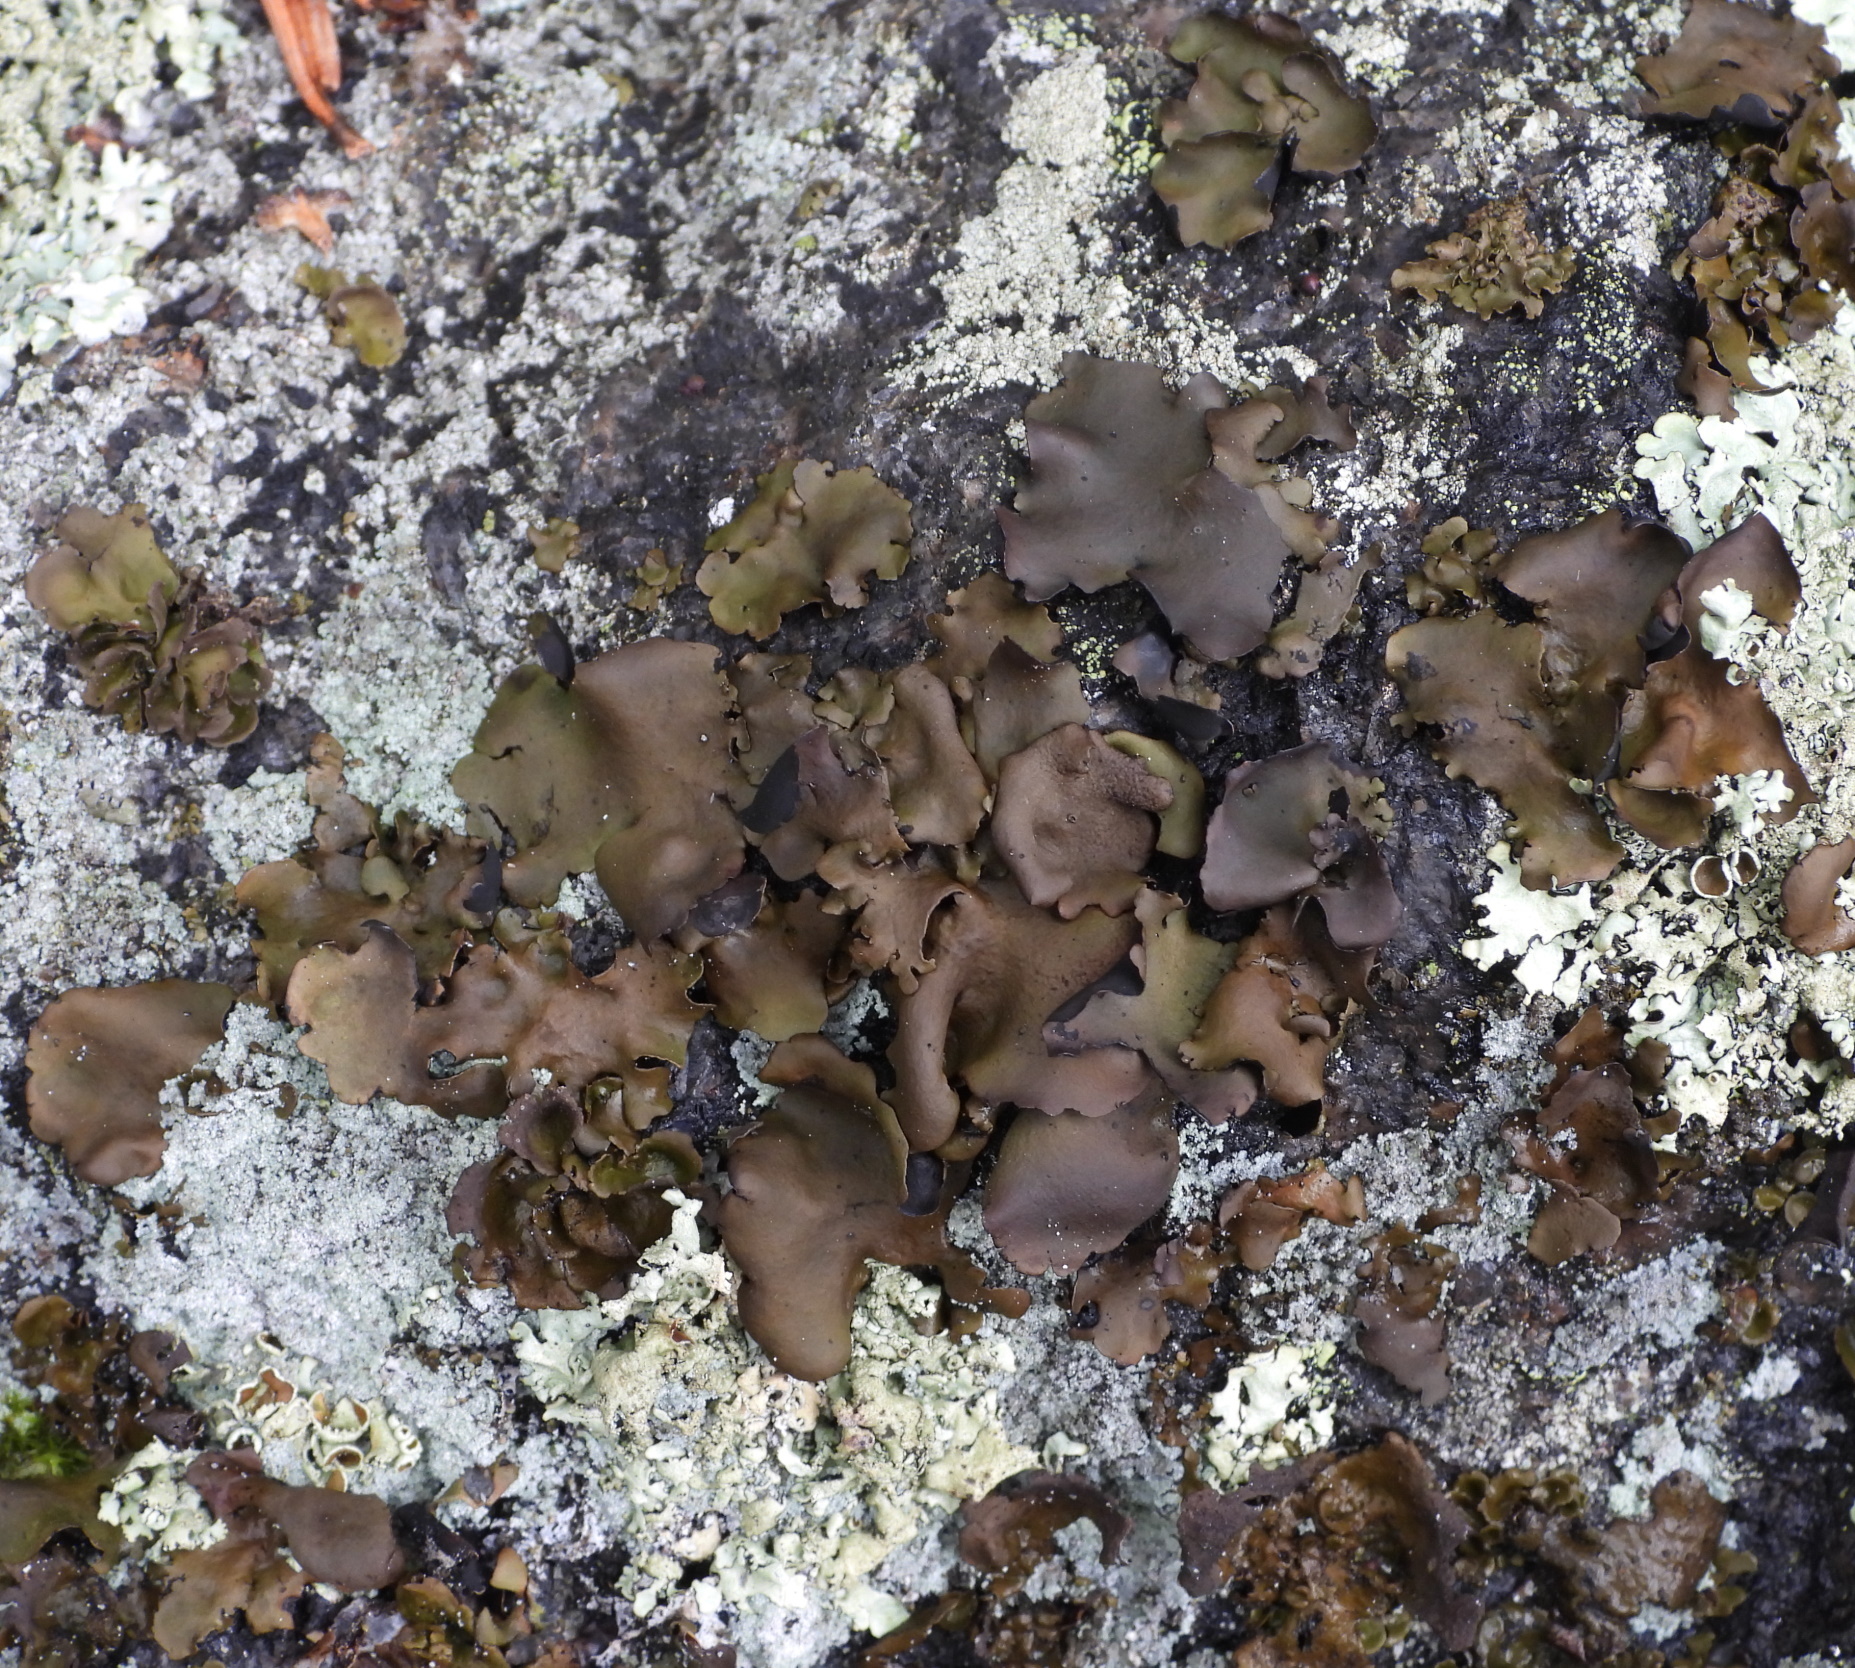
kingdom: Fungi
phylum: Ascomycota
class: Lecanoromycetes
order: Umbilicariales
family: Umbilicariaceae
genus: Umbilicaria
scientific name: Umbilicaria polyphylla
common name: Petalled rocktripe lichen
